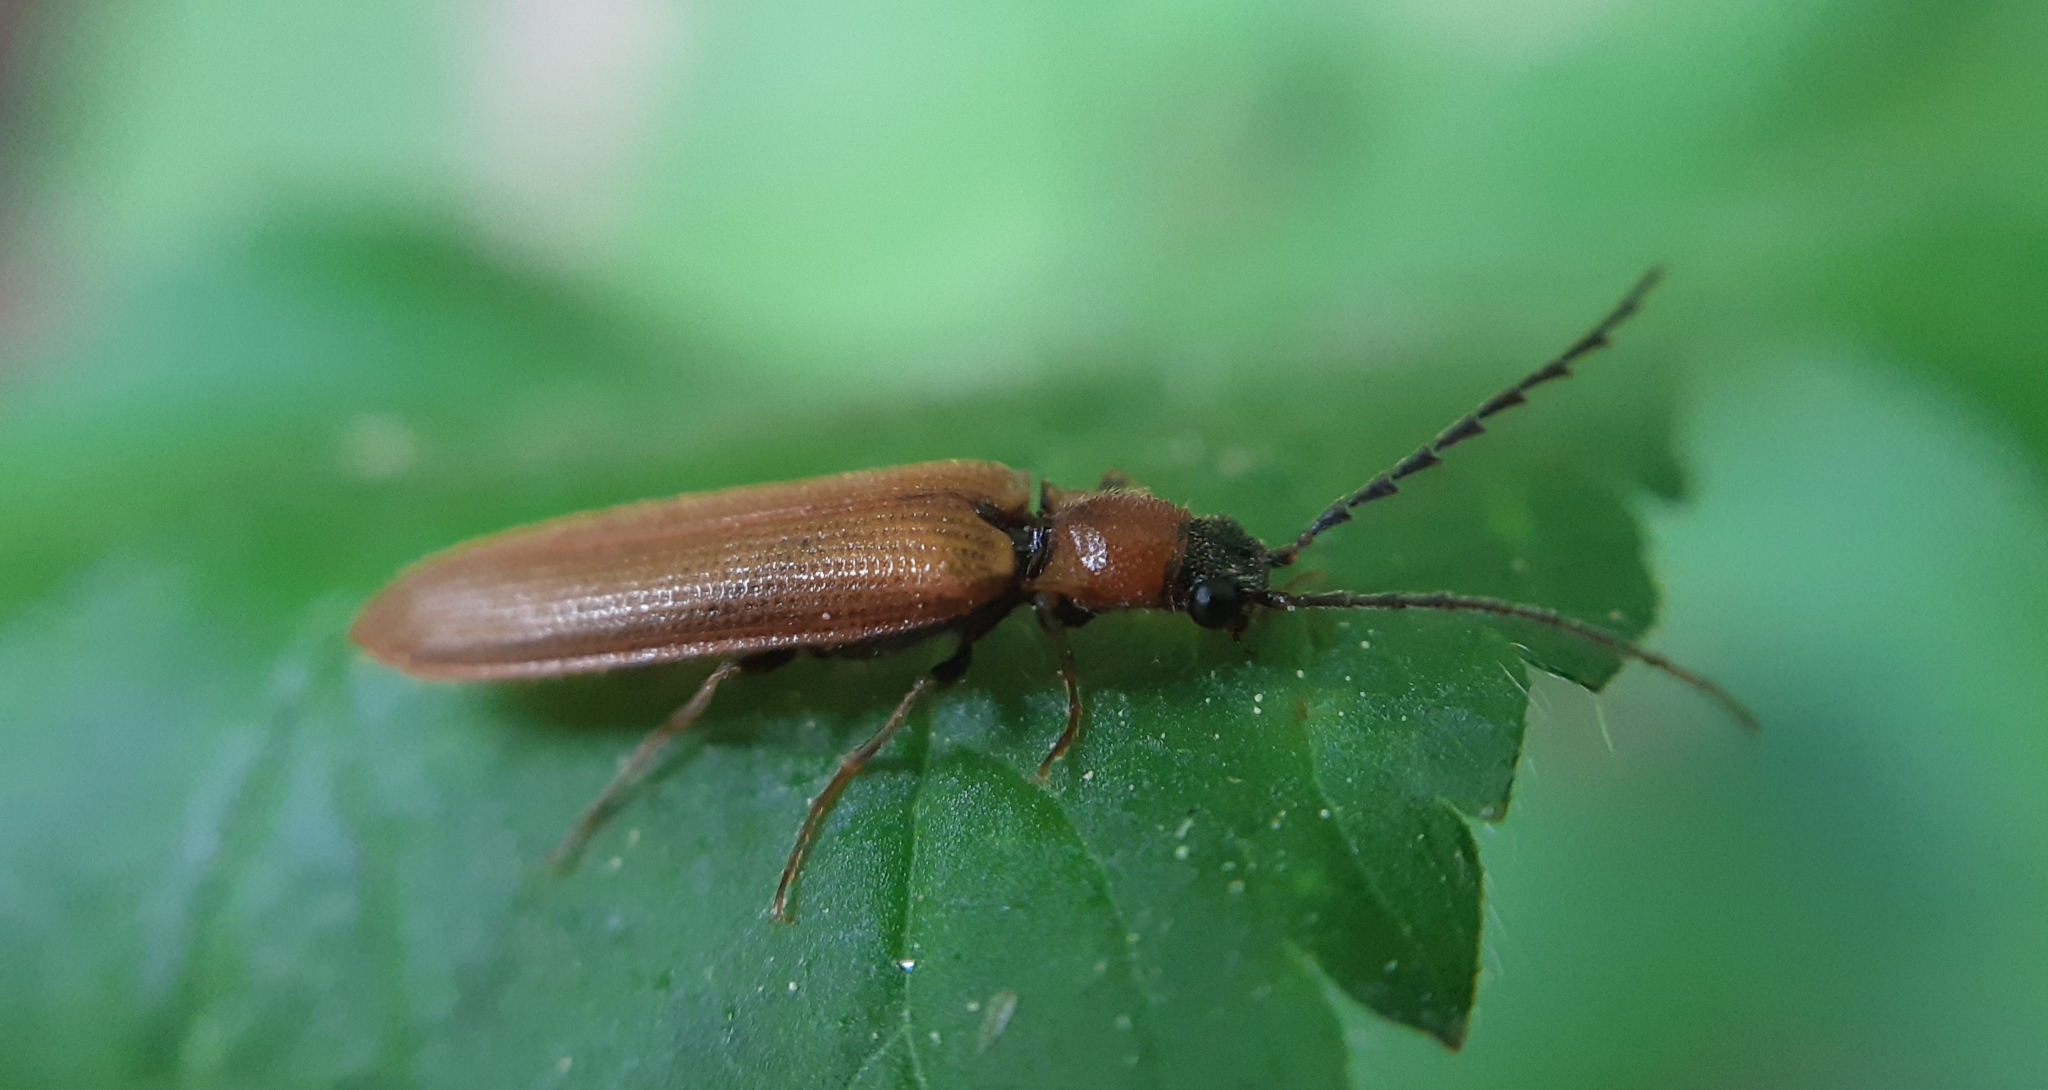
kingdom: Animalia
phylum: Arthropoda
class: Insecta
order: Coleoptera
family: Elateridae
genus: Denticollis
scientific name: Denticollis linearis
